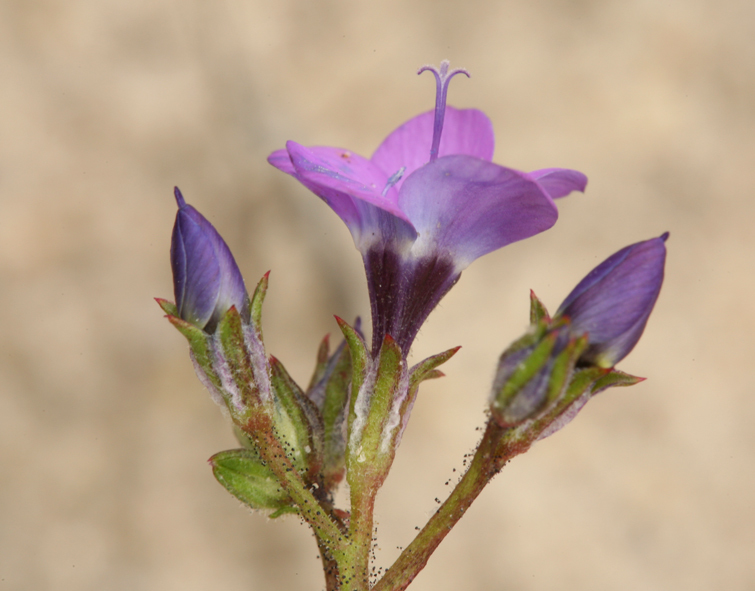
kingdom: Plantae
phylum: Tracheophyta
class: Magnoliopsida
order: Ericales
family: Polemoniaceae
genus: Gilia
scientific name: Gilia tenuiflora
